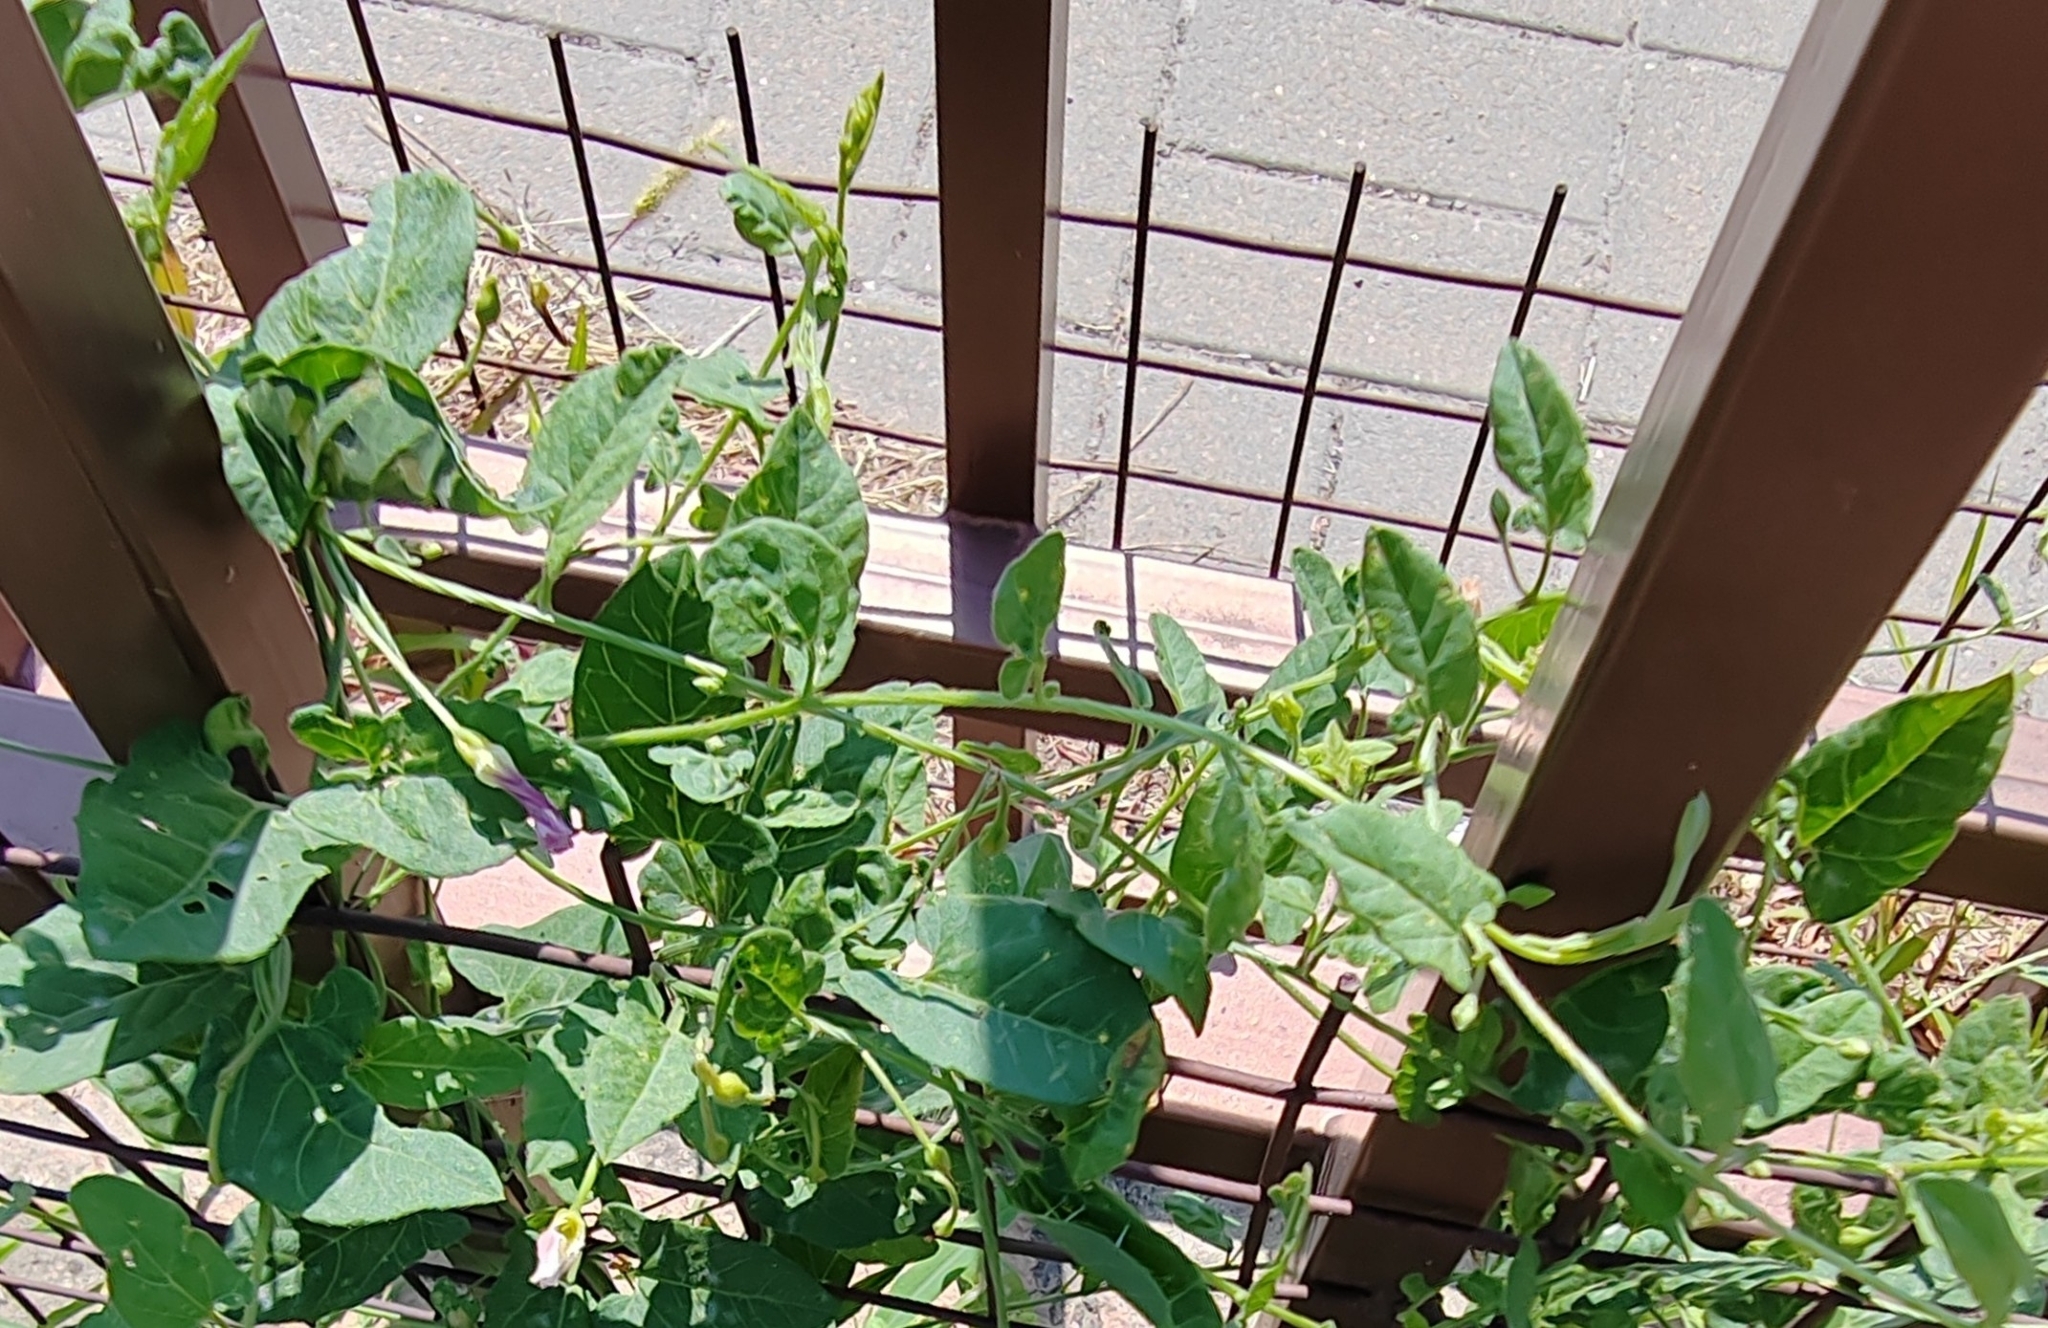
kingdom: Plantae
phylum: Tracheophyta
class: Magnoliopsida
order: Solanales
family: Convolvulaceae
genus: Convolvulus
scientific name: Convolvulus arvensis
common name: Field bindweed
